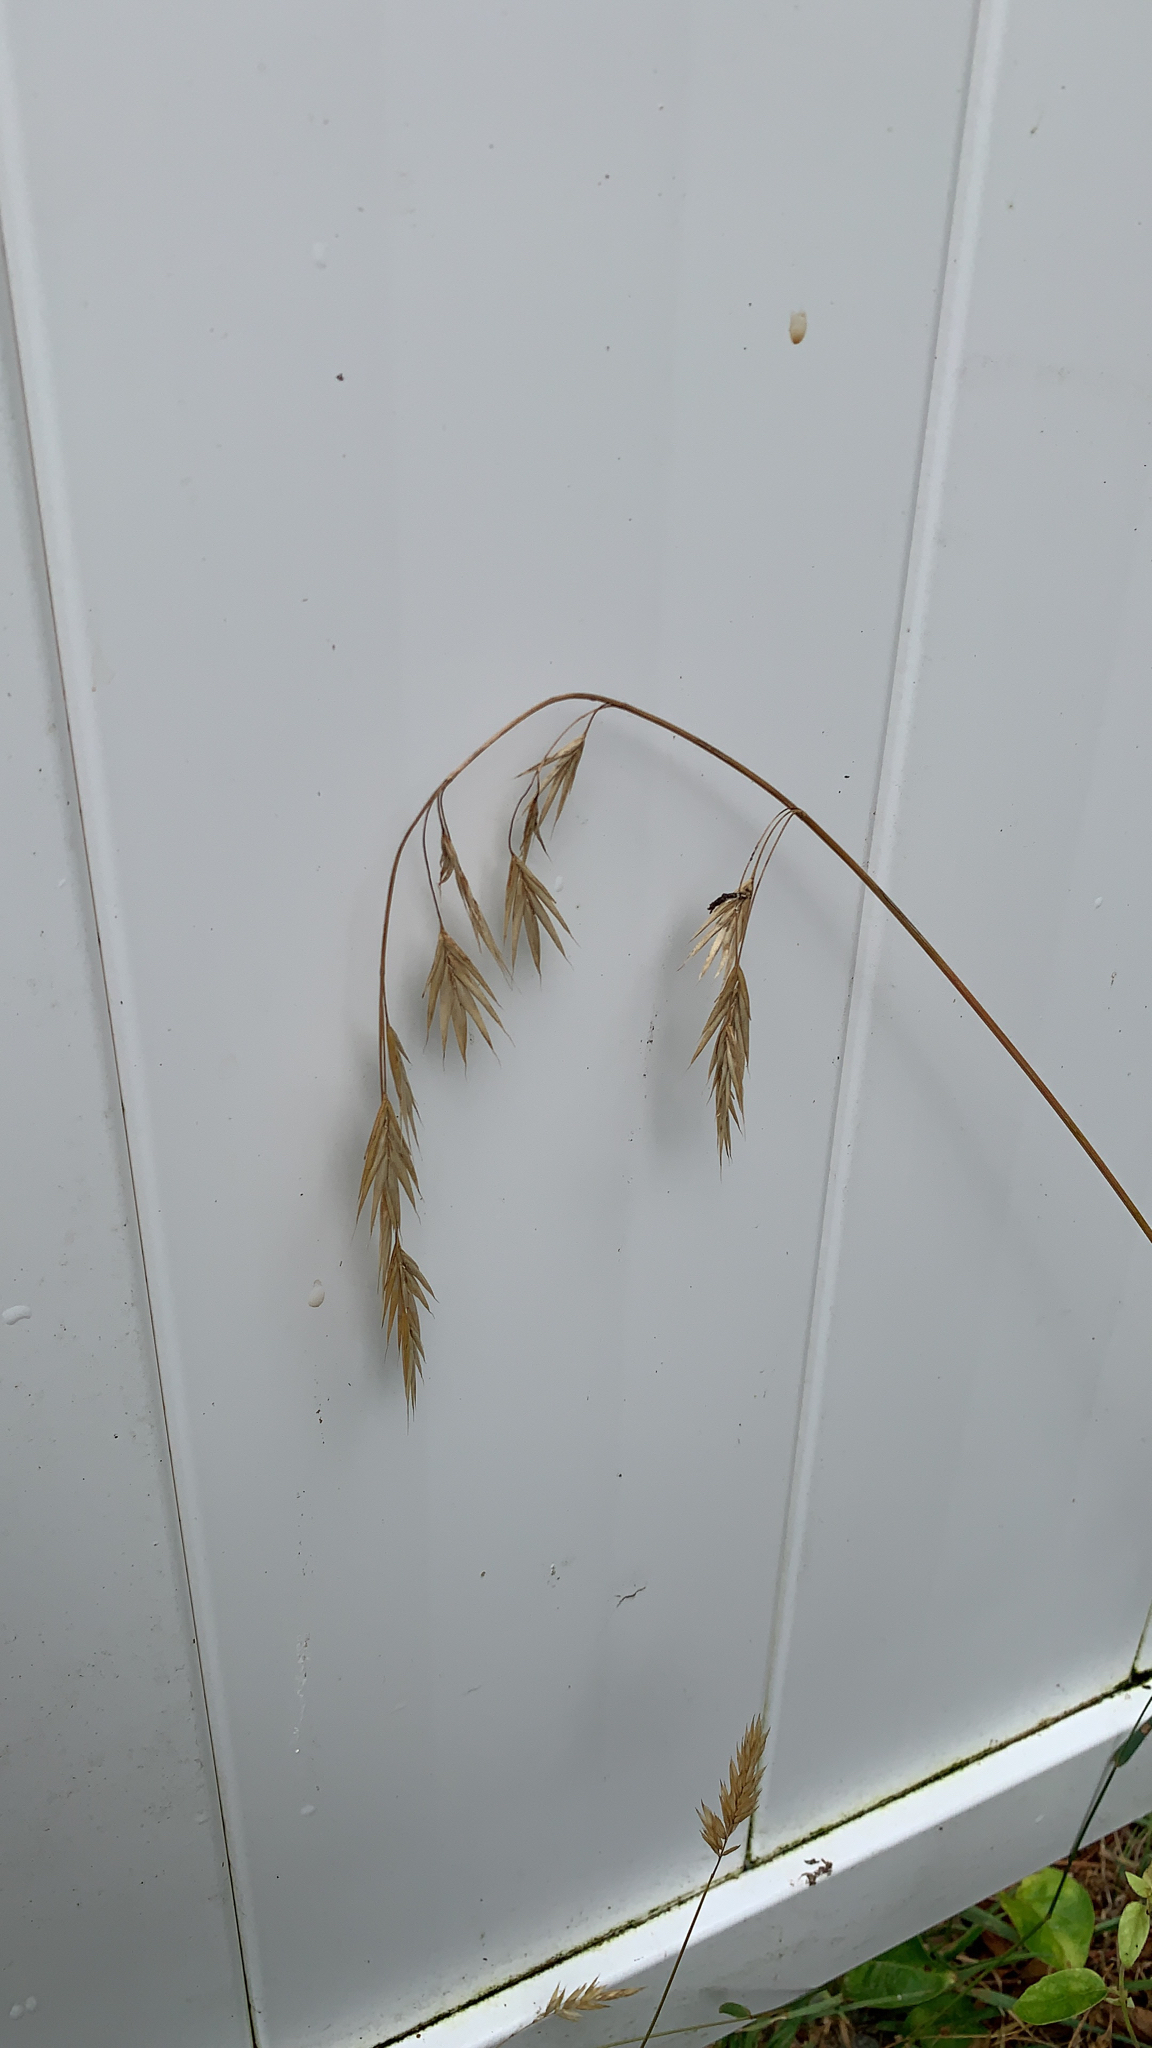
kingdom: Plantae
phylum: Tracheophyta
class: Liliopsida
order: Poales
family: Poaceae
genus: Bromus
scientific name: Bromus
